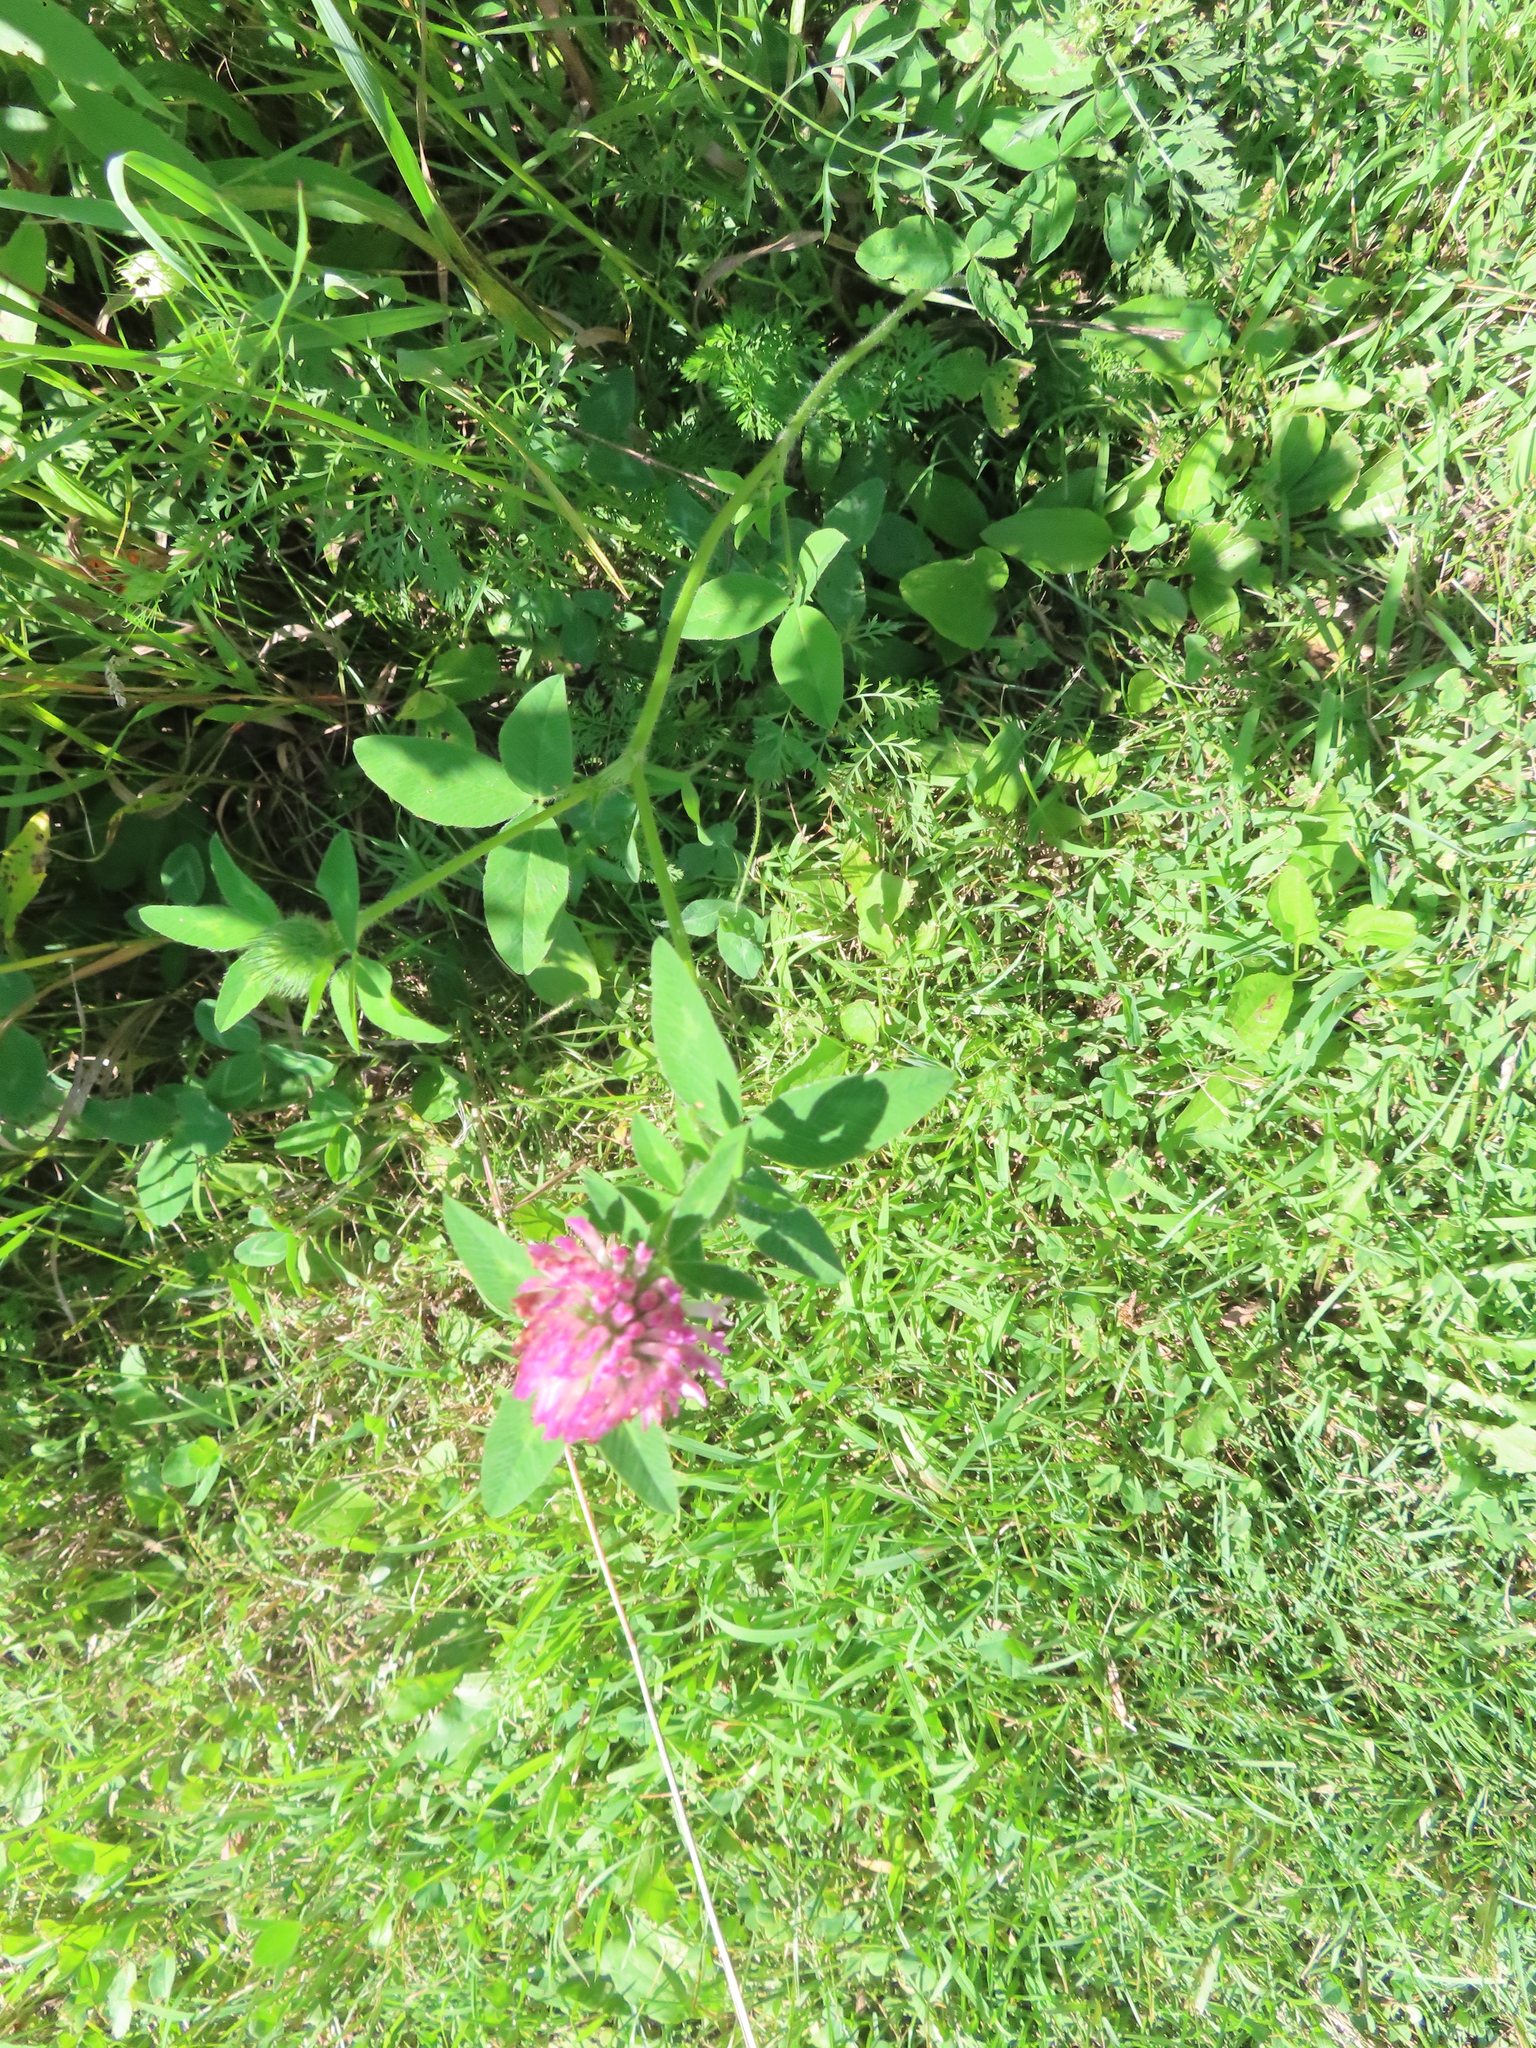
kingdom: Plantae
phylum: Tracheophyta
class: Magnoliopsida
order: Fabales
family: Fabaceae
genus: Trifolium
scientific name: Trifolium pratense
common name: Red clover
